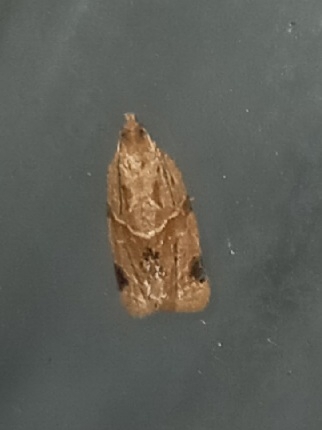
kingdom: Animalia
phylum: Arthropoda
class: Insecta
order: Lepidoptera
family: Tortricidae
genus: Clepsis
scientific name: Clepsis peritana
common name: Garden tortrix
